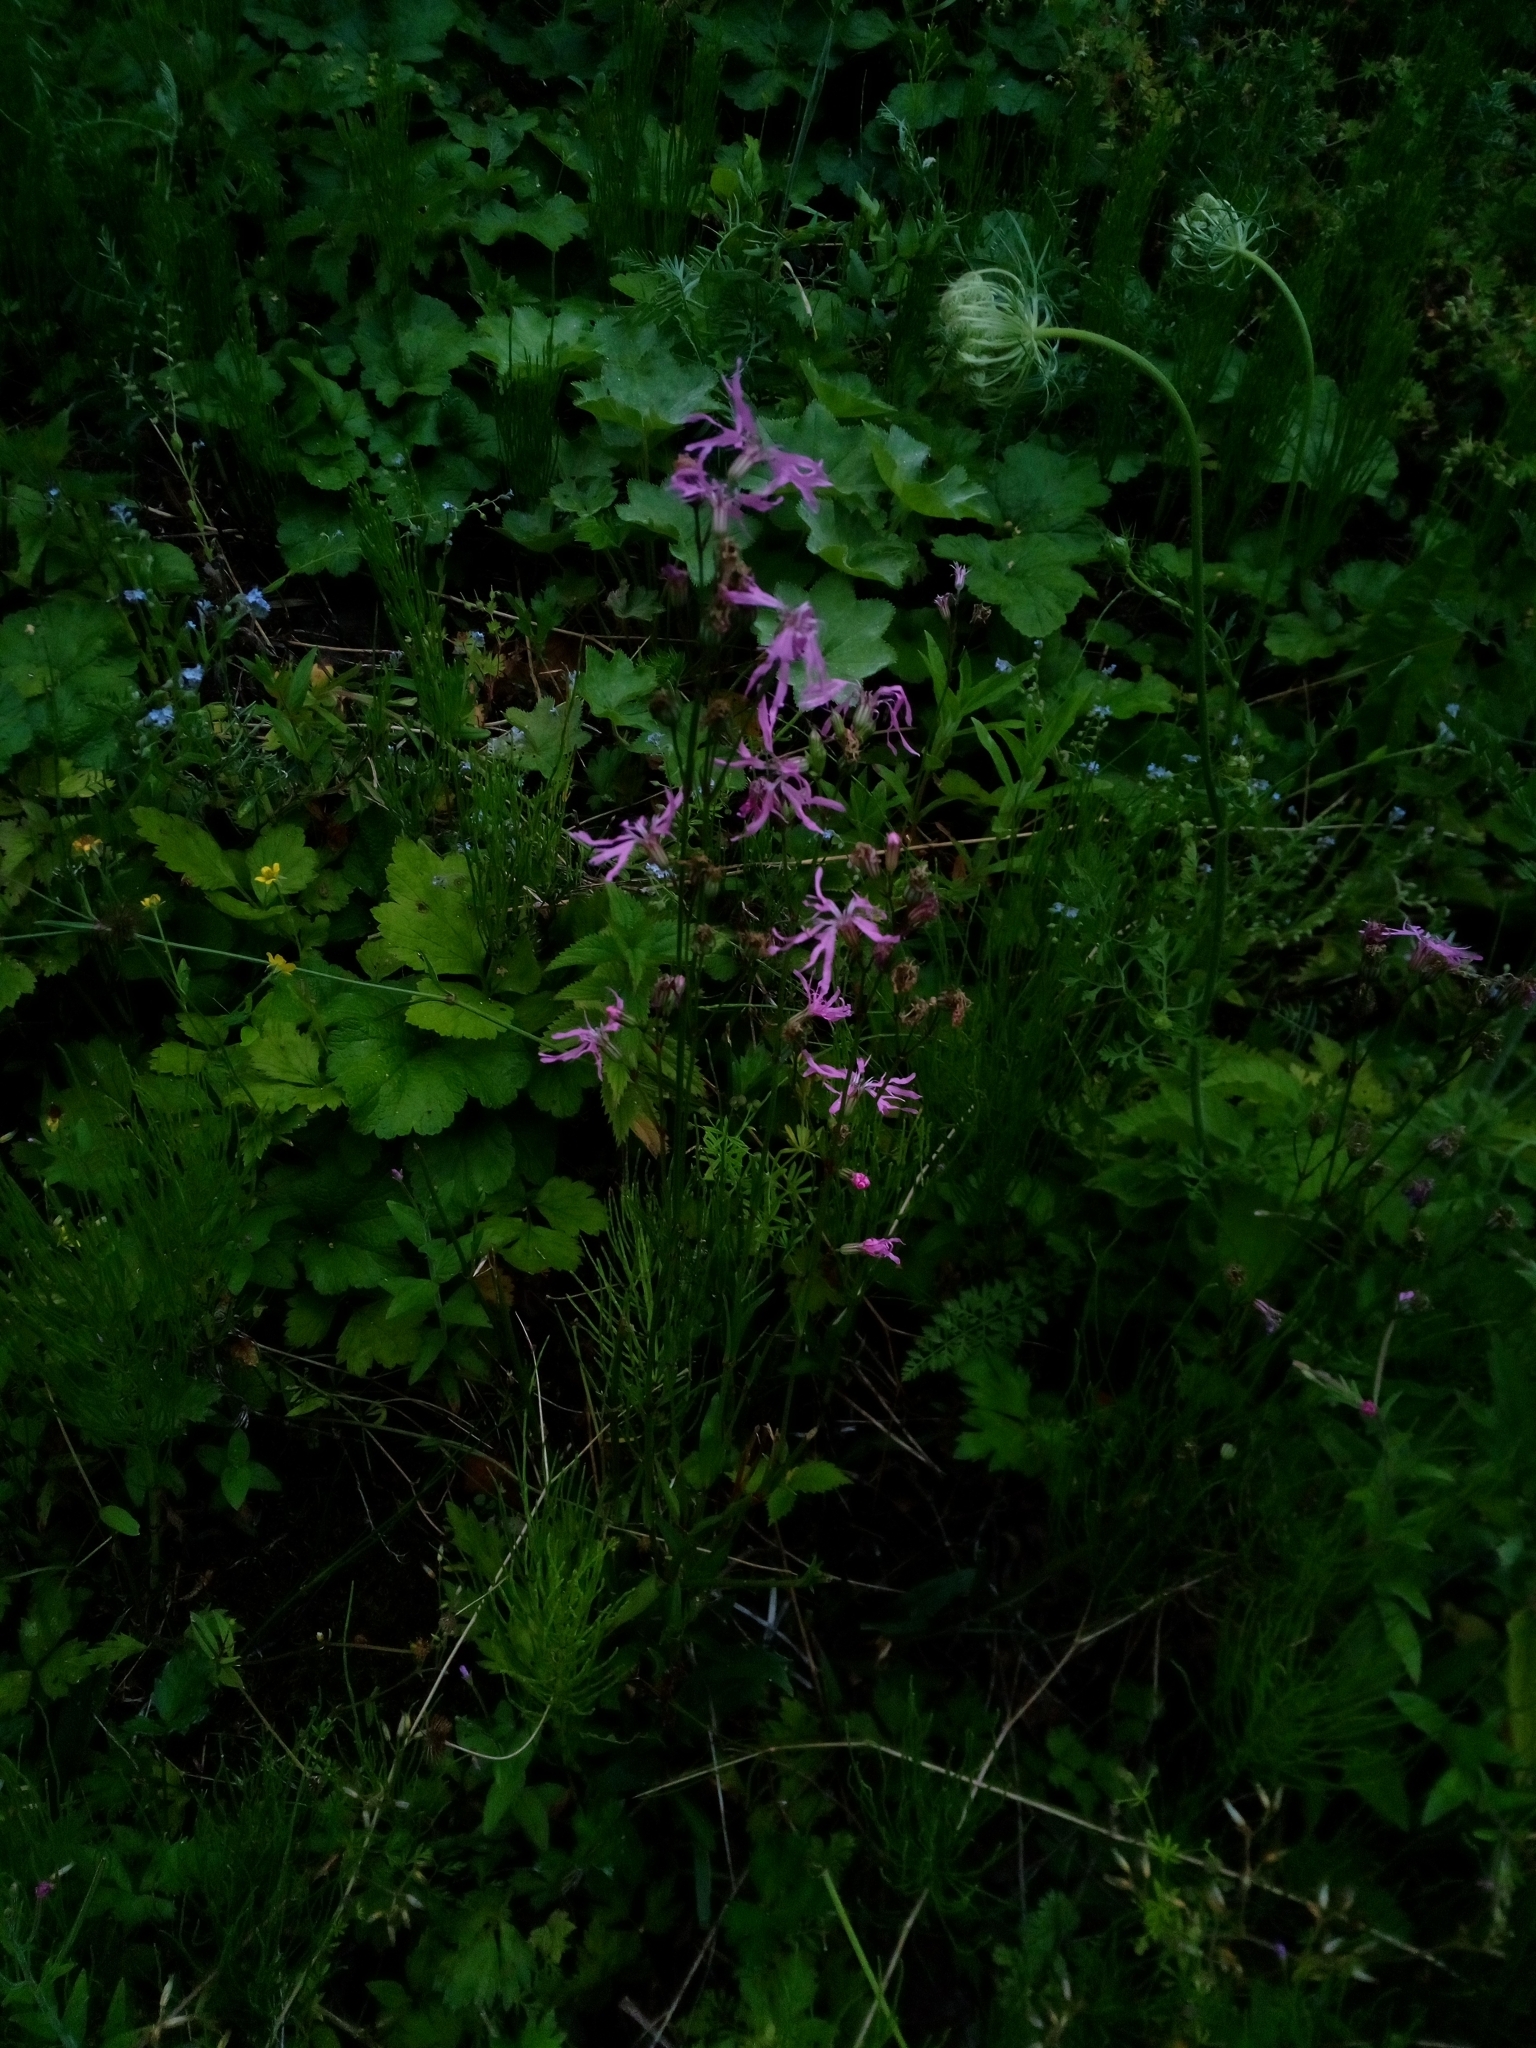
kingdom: Plantae
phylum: Tracheophyta
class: Magnoliopsida
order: Caryophyllales
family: Caryophyllaceae
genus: Silene
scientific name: Silene flos-cuculi
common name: Ragged-robin
